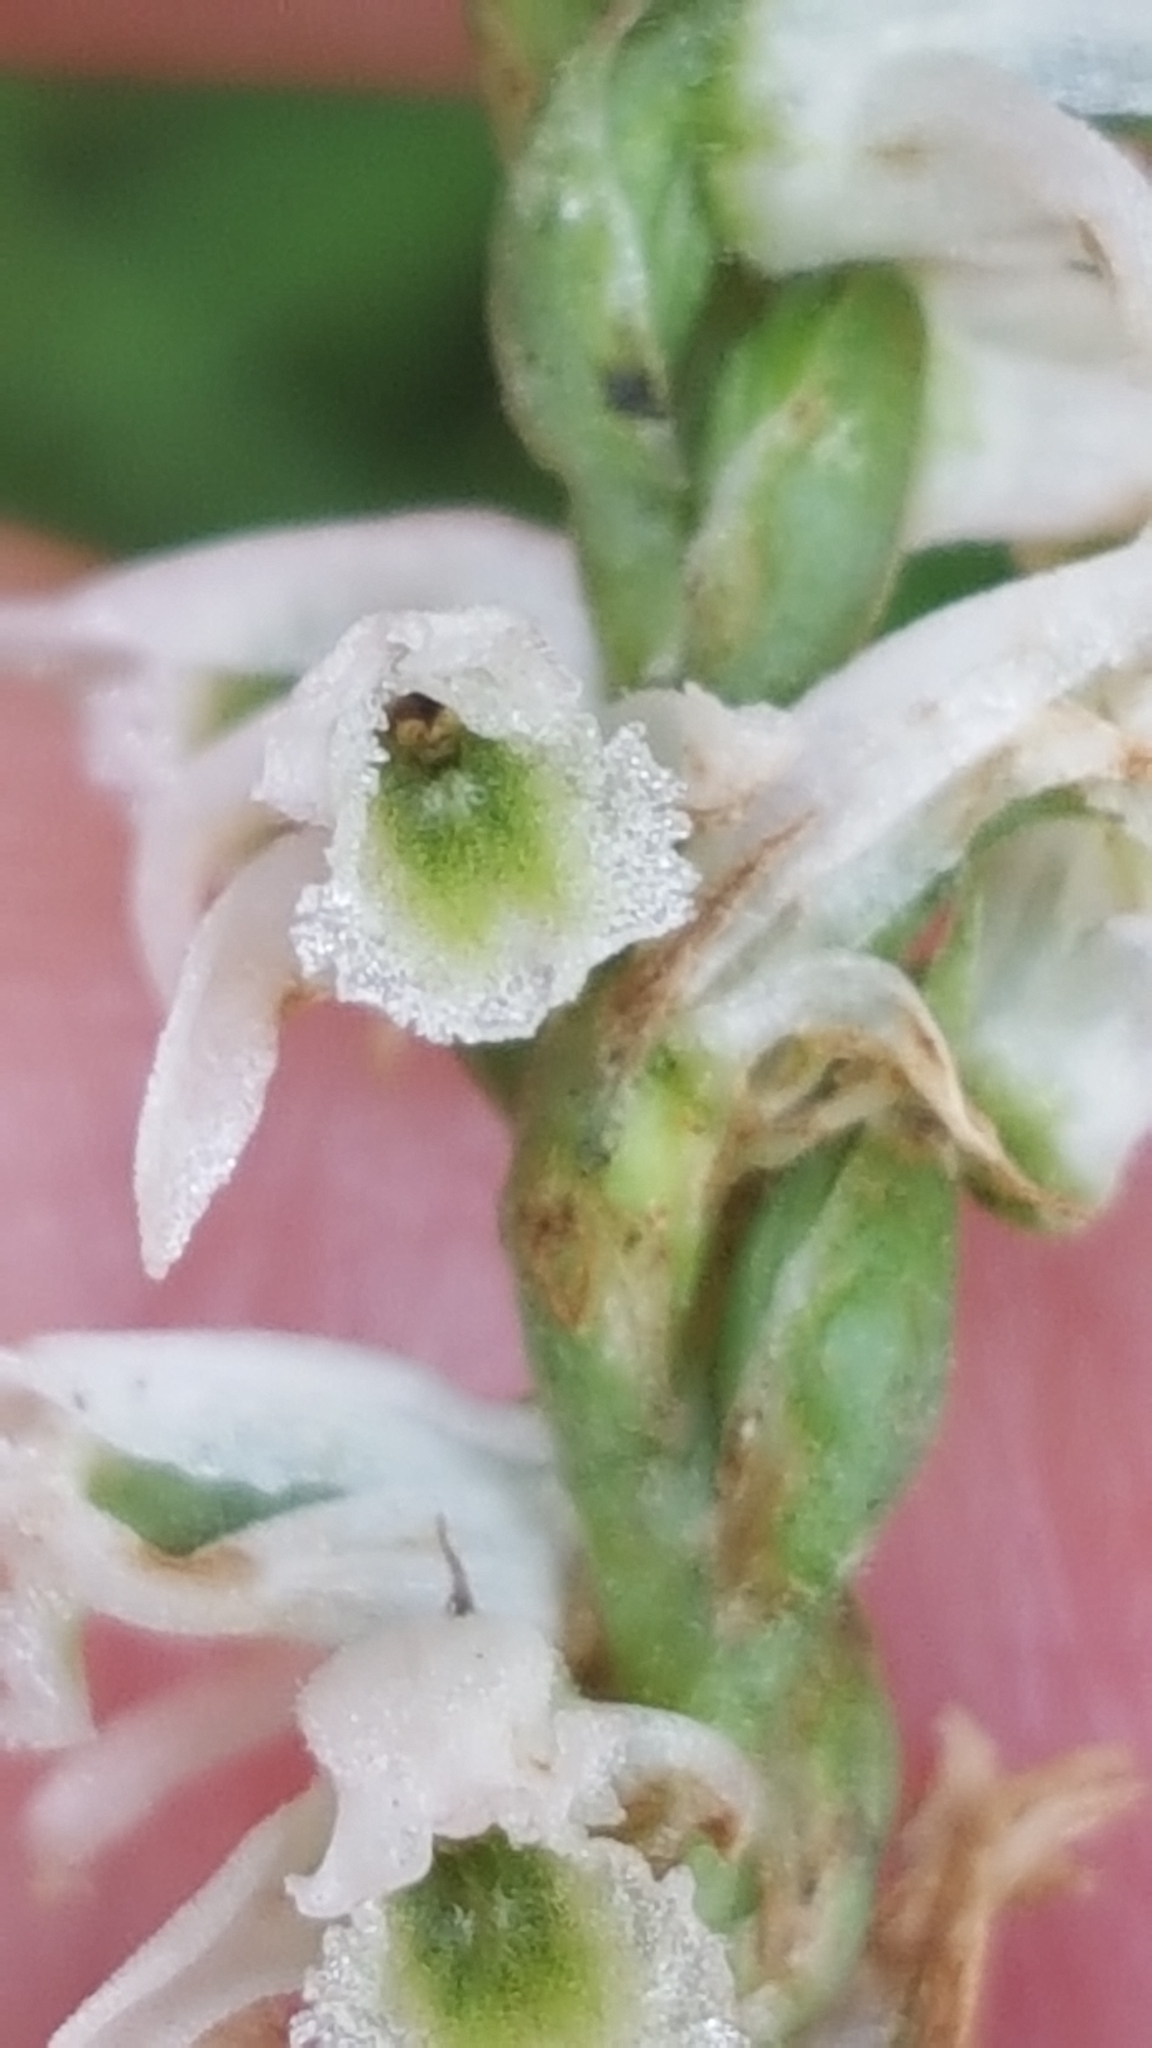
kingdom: Plantae
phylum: Tracheophyta
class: Liliopsida
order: Asparagales
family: Orchidaceae
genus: Spiranthes
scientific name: Spiranthes lacera
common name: Northern slender ladies'-tresses
